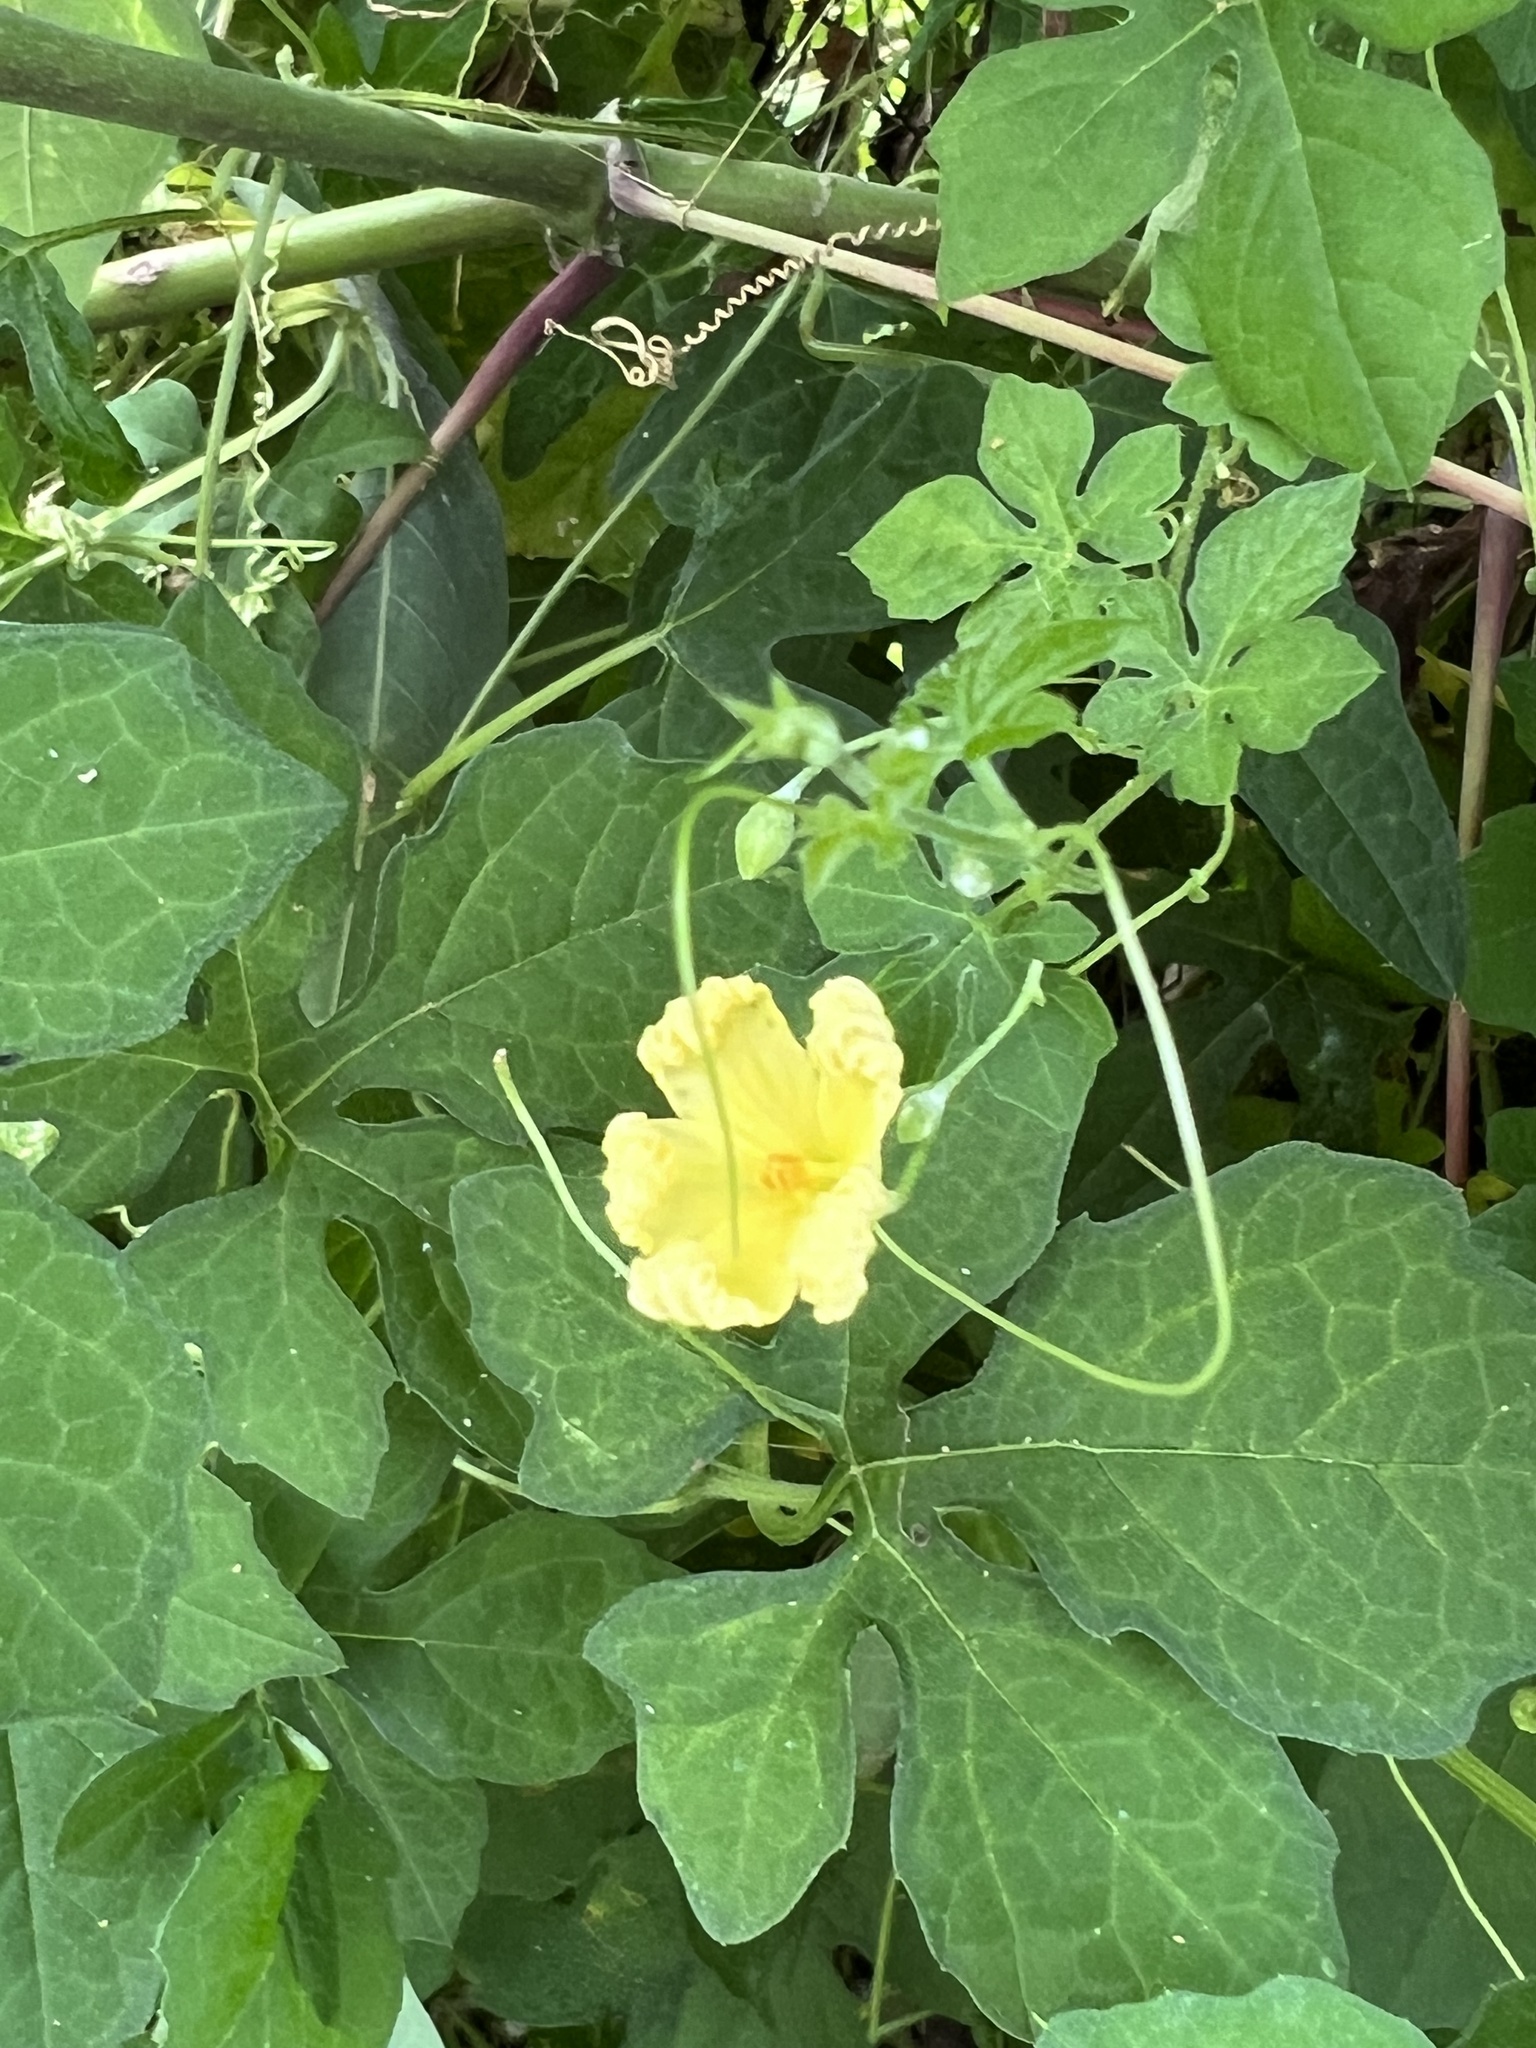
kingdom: Plantae
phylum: Tracheophyta
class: Magnoliopsida
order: Cucurbitales
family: Cucurbitaceae
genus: Momordica
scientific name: Momordica charantia
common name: Balsampear
